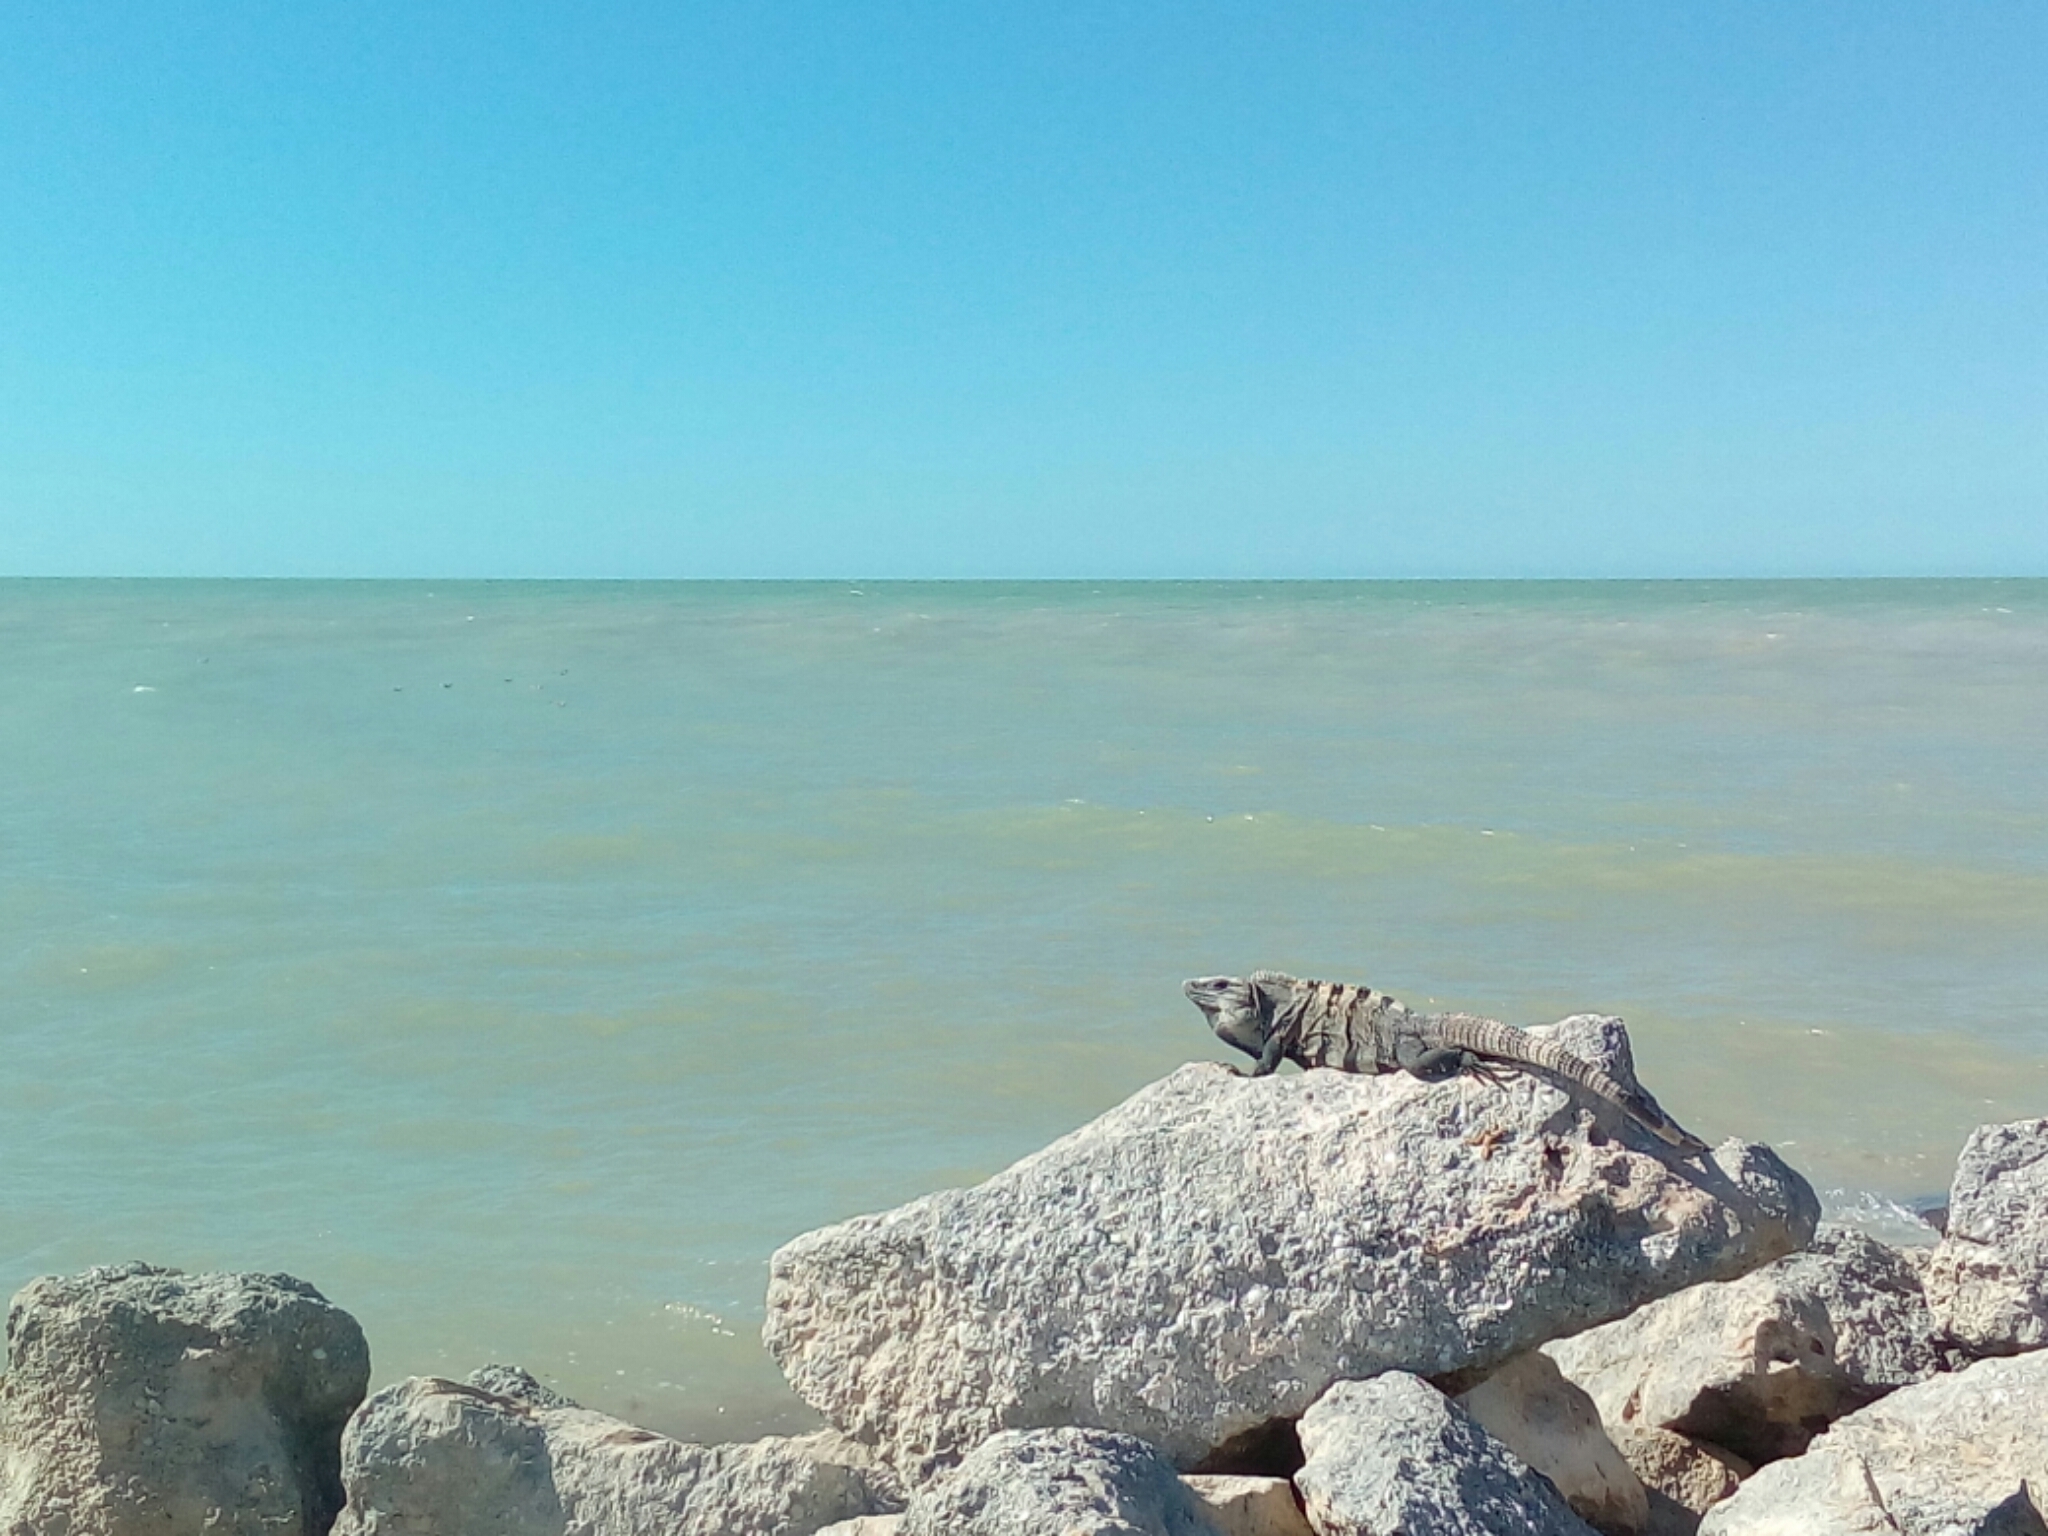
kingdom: Animalia
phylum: Chordata
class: Squamata
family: Iguanidae
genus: Ctenosaura
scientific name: Ctenosaura similis
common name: Black spiny-tailed iguana
